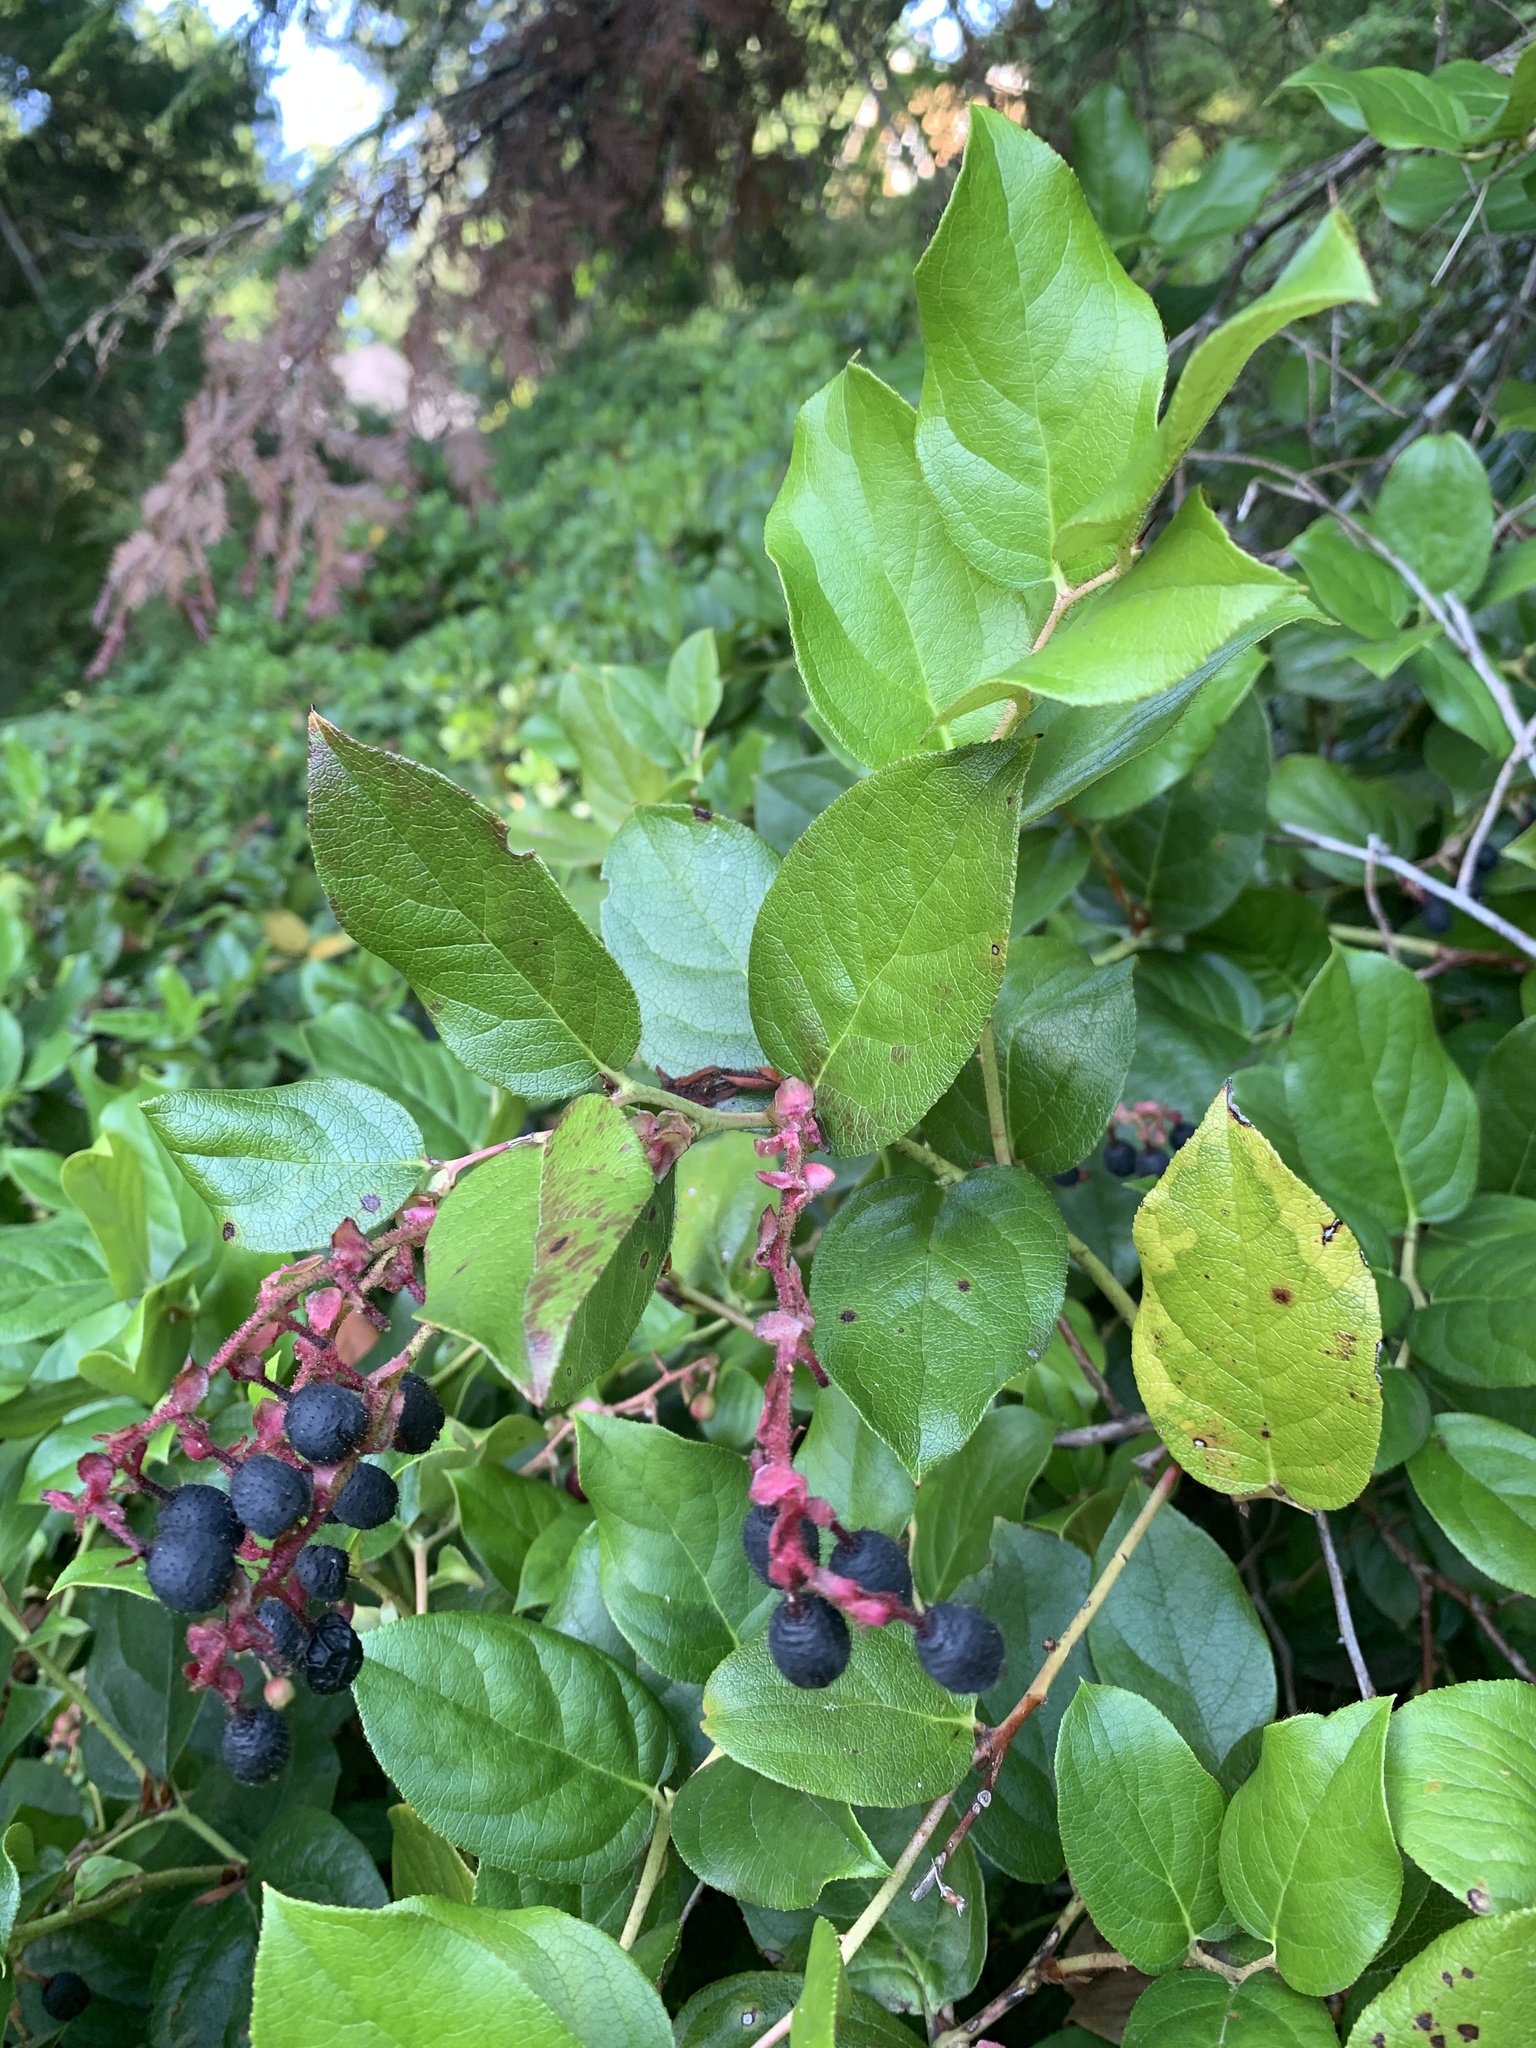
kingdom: Plantae
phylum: Tracheophyta
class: Magnoliopsida
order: Ericales
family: Ericaceae
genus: Gaultheria
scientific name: Gaultheria shallon
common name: Shallon
